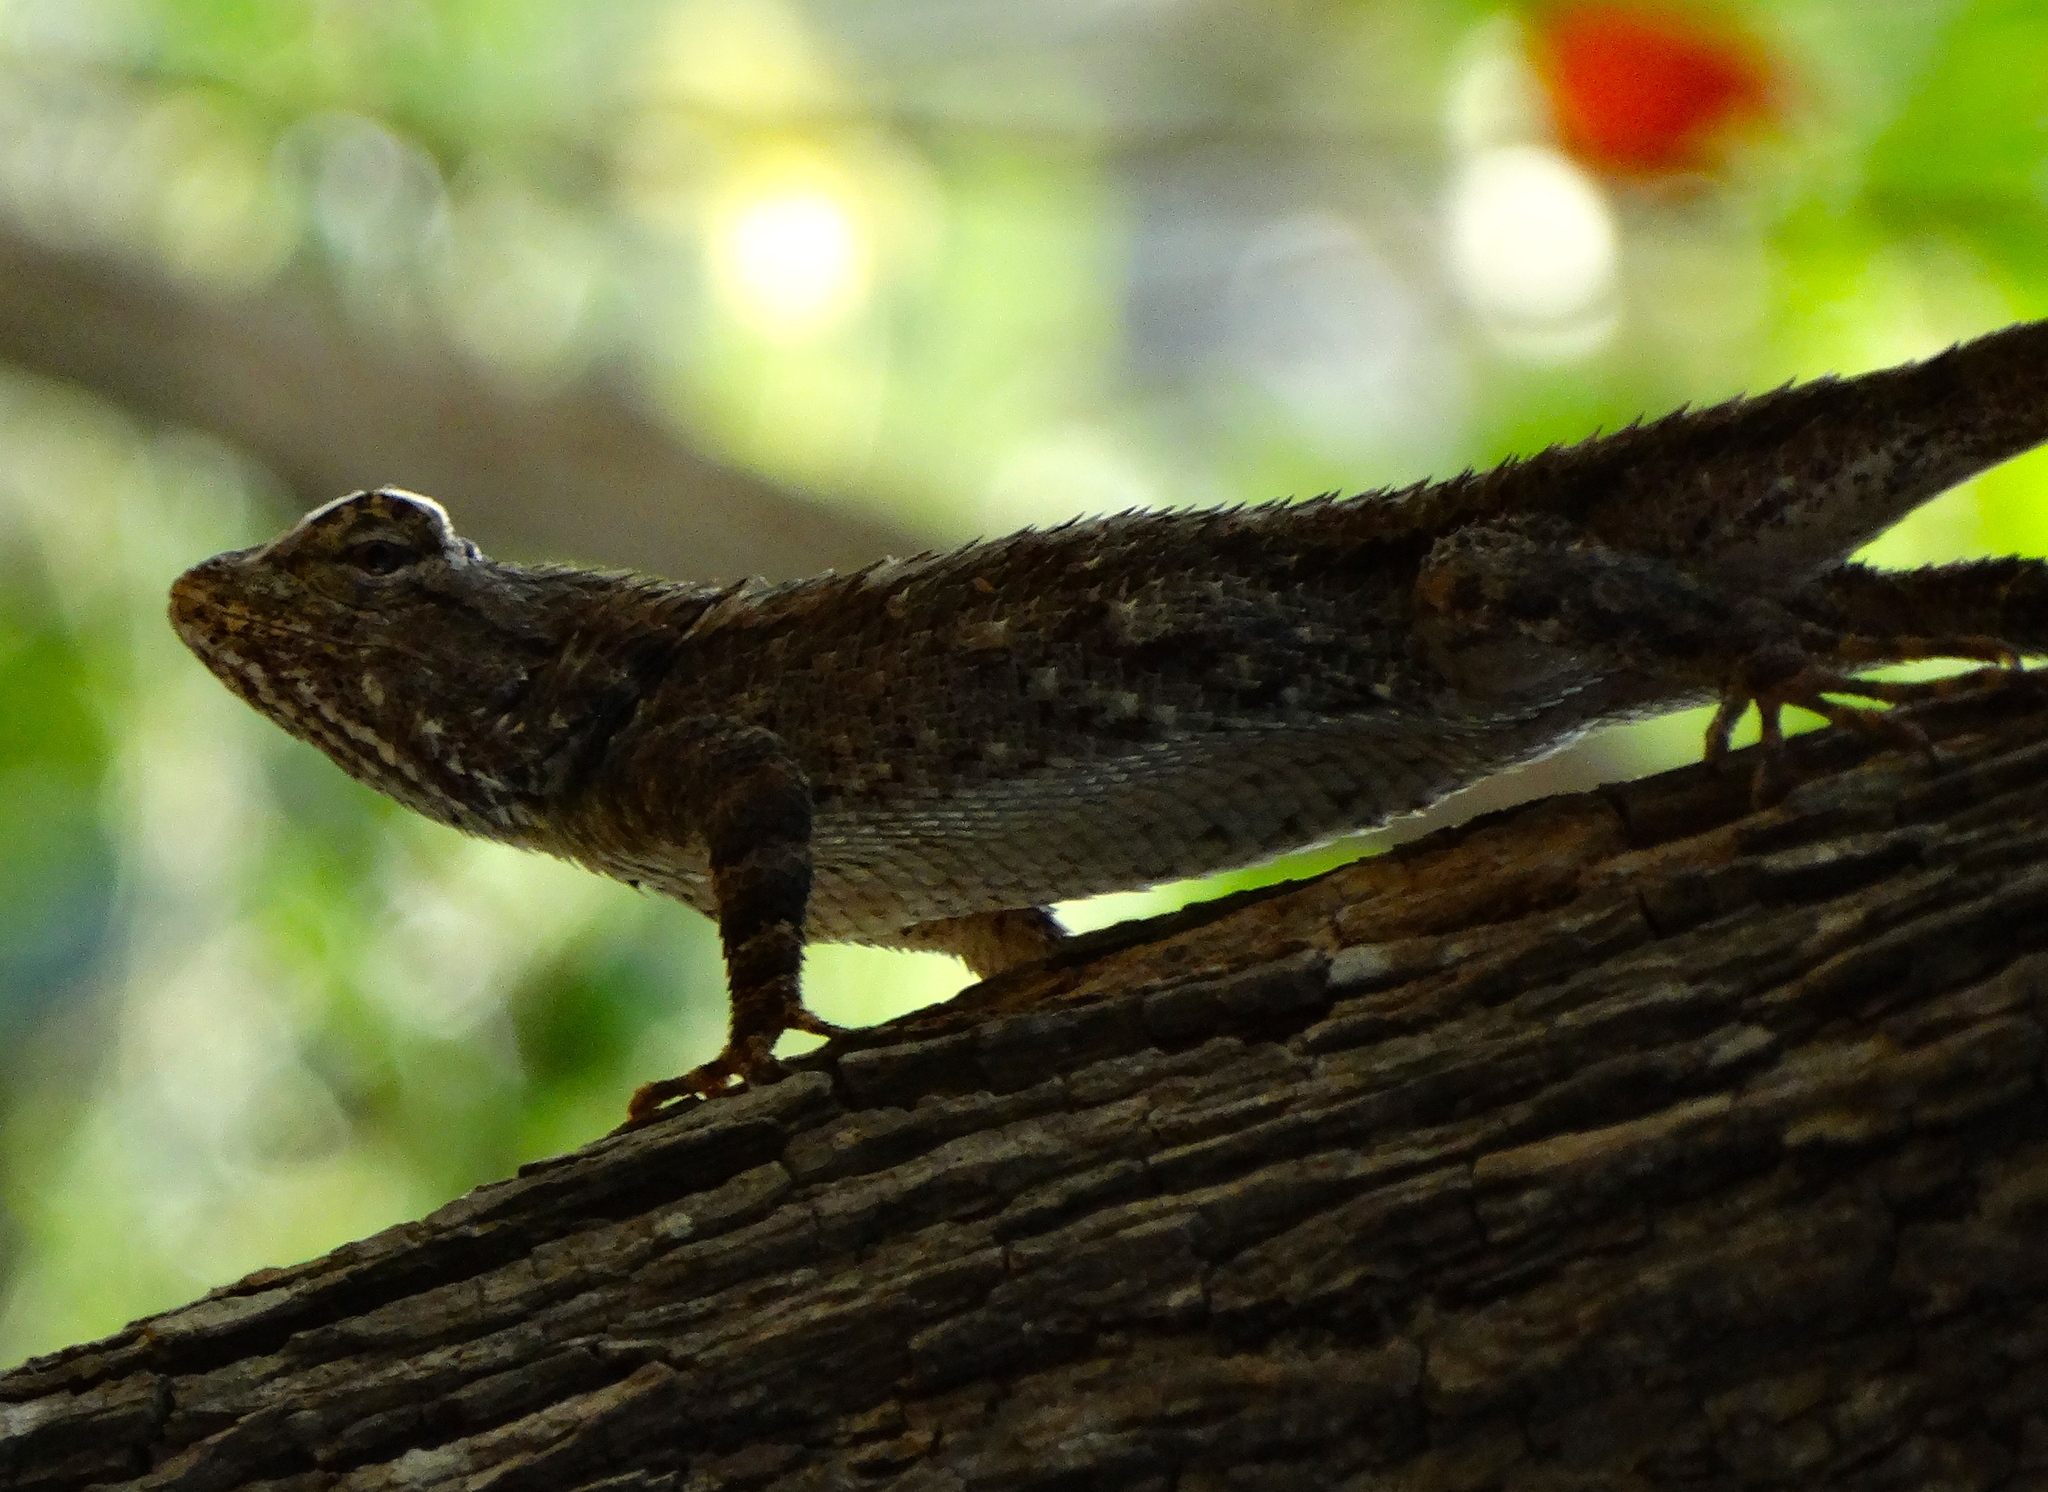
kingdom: Animalia
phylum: Chordata
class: Squamata
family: Phrynosomatidae
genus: Sceloporus
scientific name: Sceloporus clarkii
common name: Clark's spiny lizard
